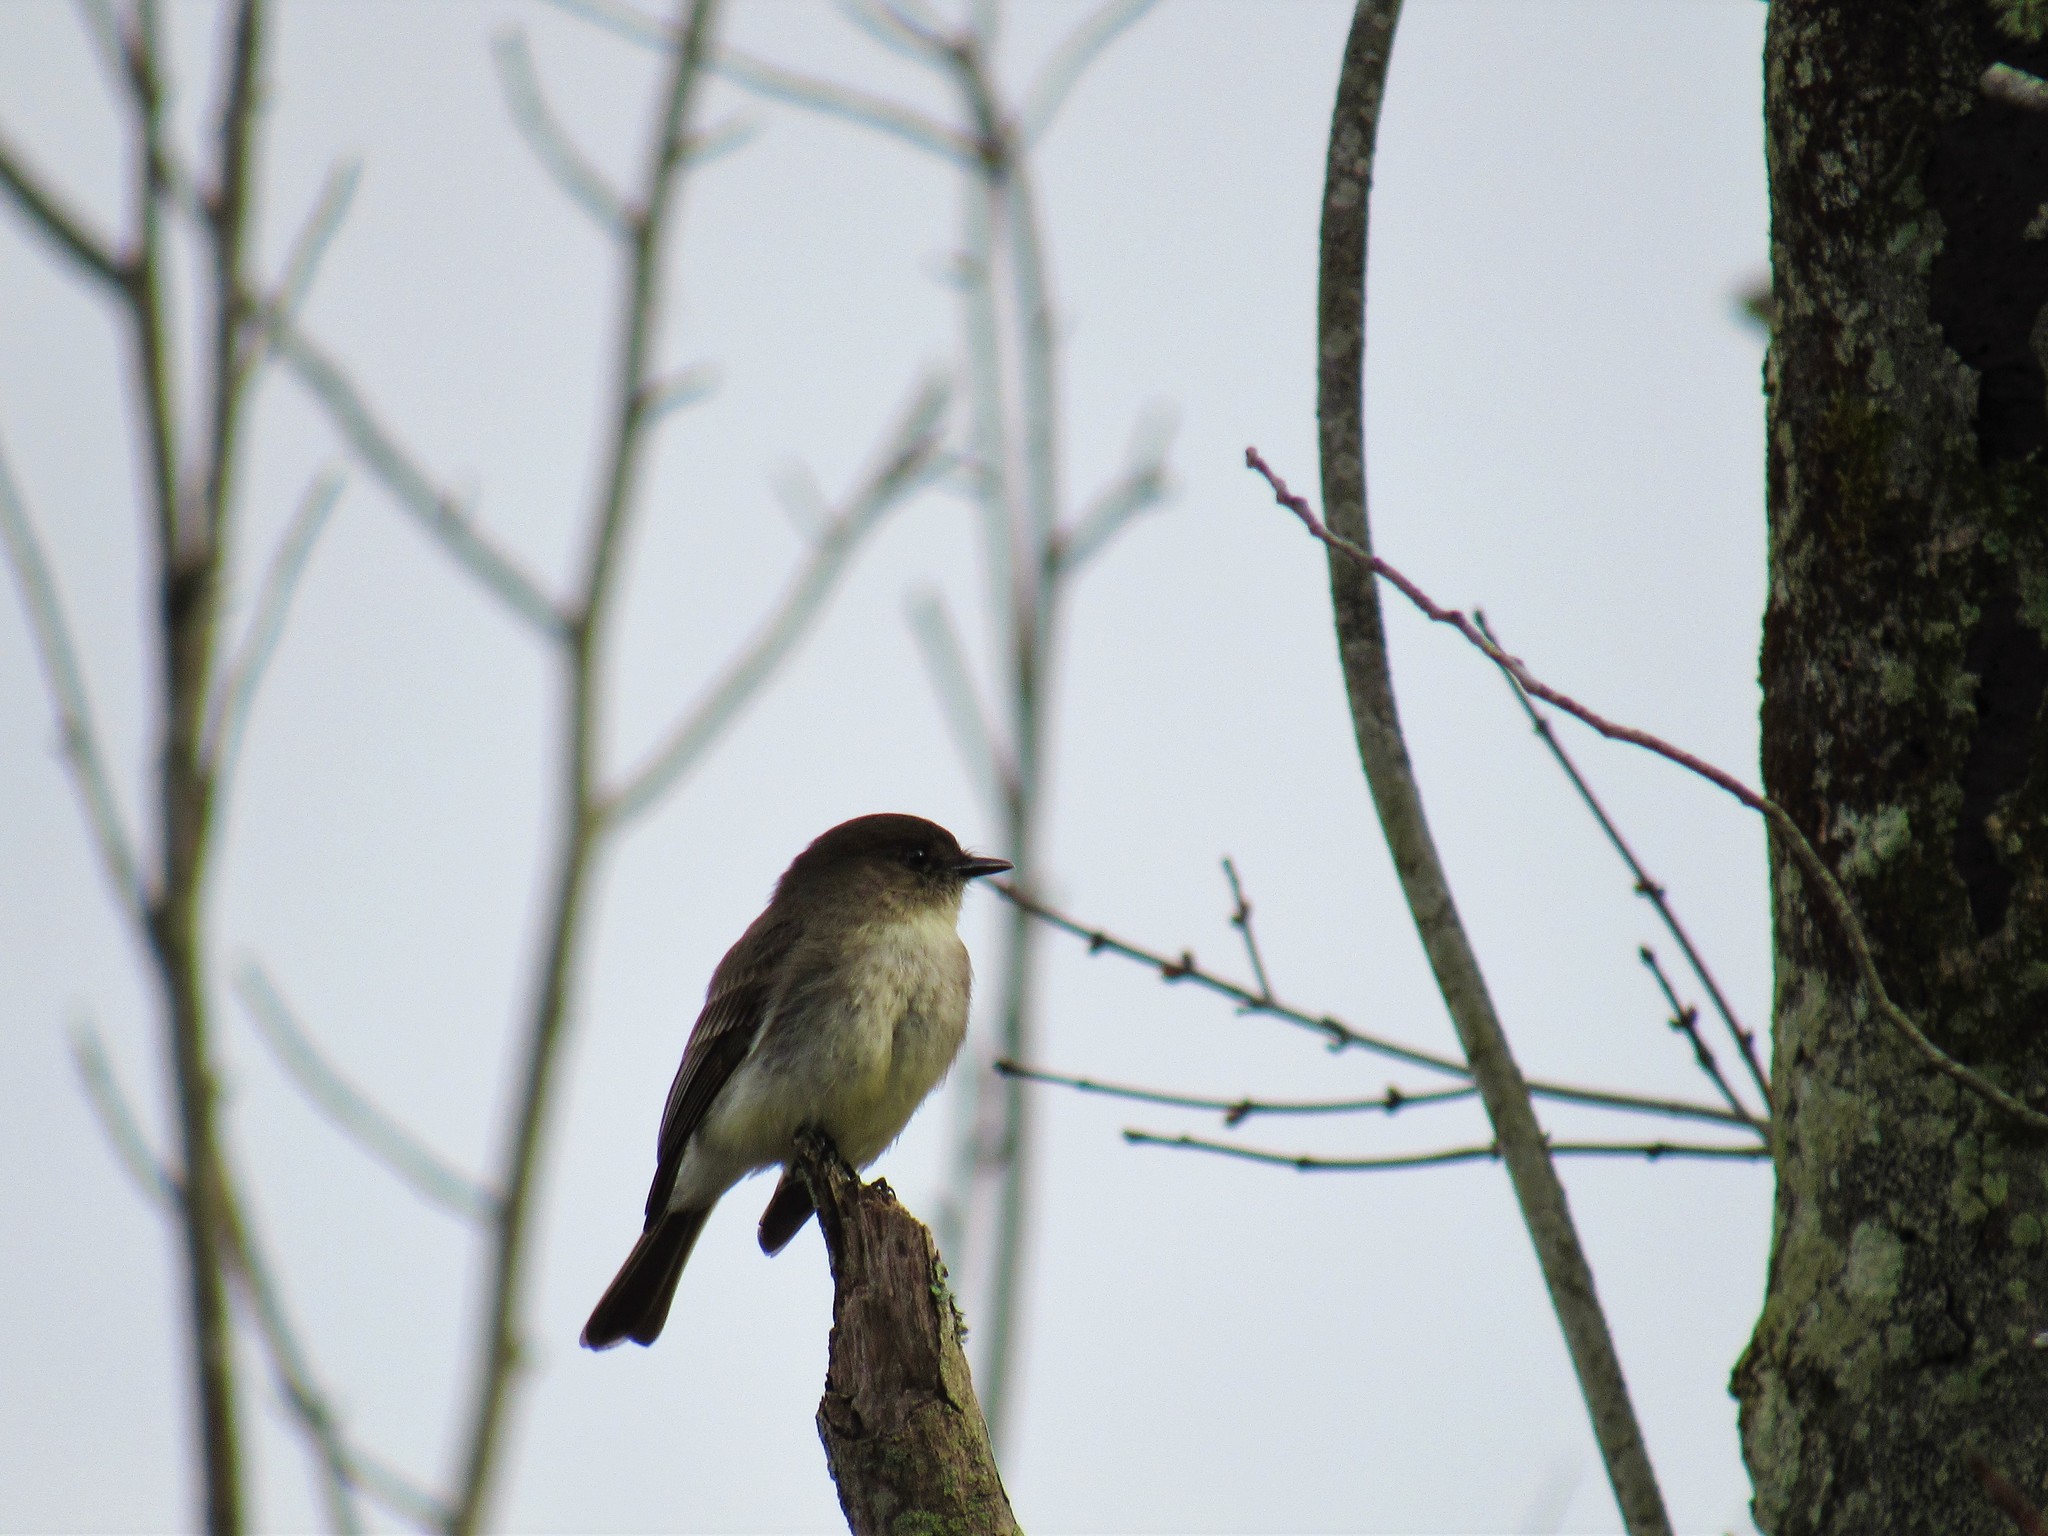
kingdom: Animalia
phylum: Chordata
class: Aves
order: Passeriformes
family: Tyrannidae
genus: Sayornis
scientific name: Sayornis phoebe
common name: Eastern phoebe
